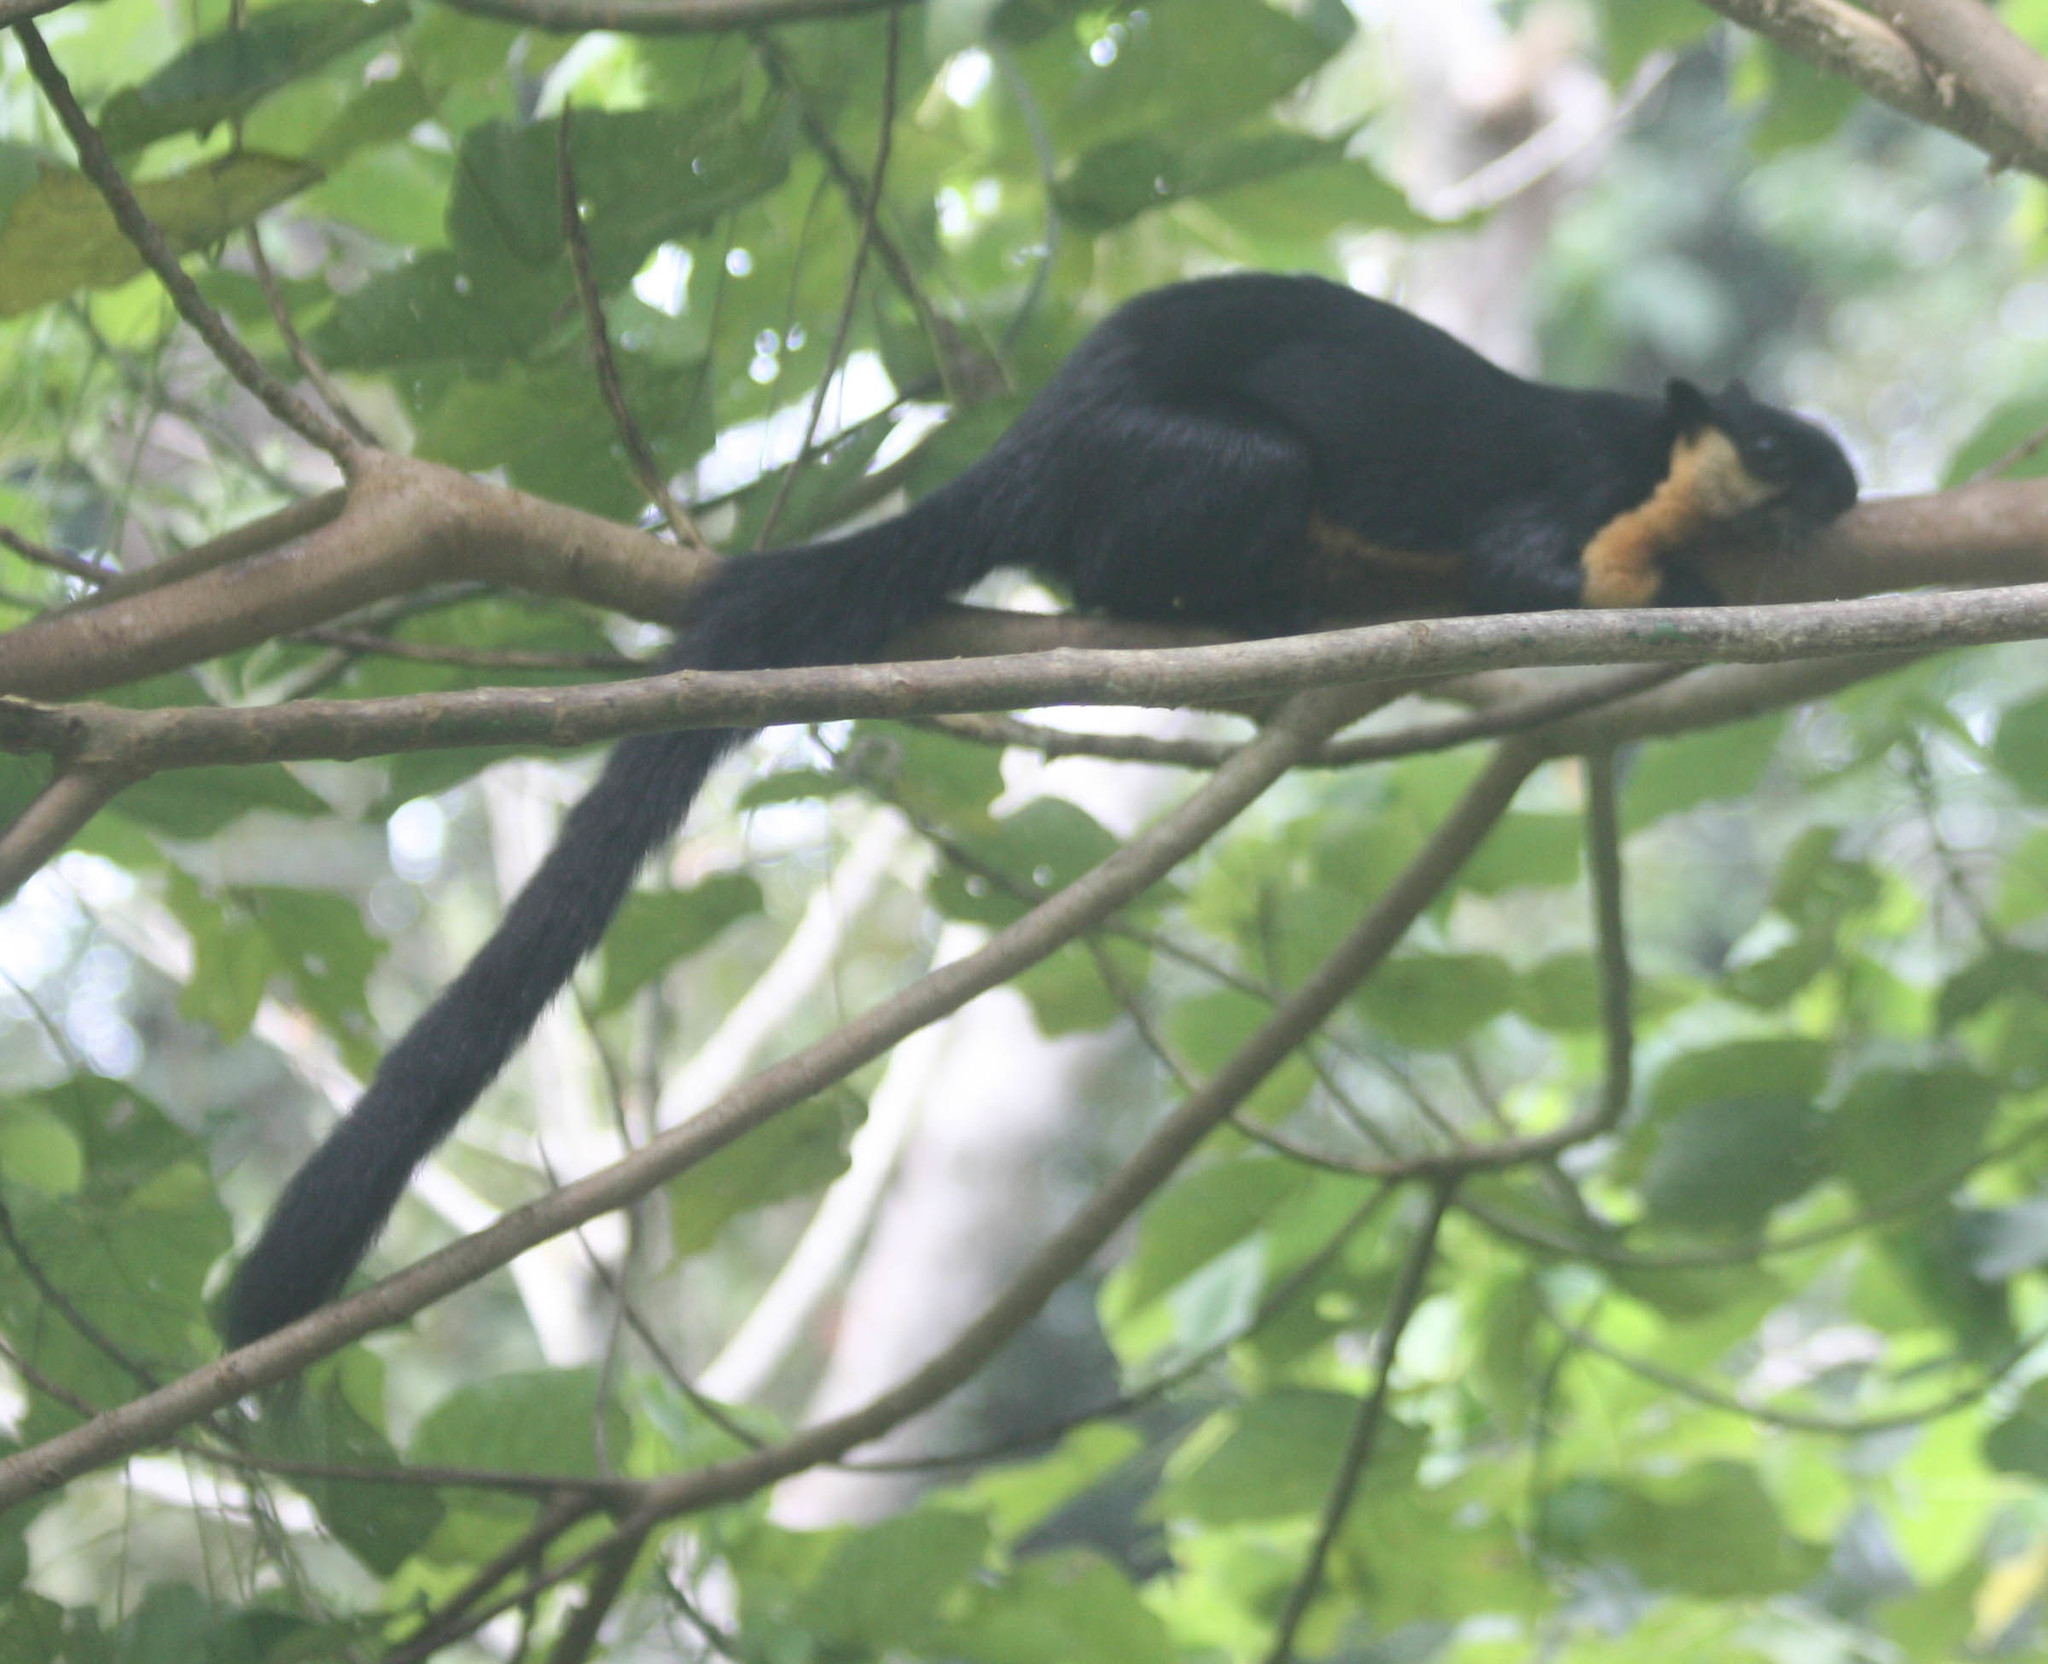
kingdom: Animalia
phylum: Chordata
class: Mammalia
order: Rodentia
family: Sciuridae
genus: Ratufa
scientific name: Ratufa bicolor
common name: Black giant squirrel
